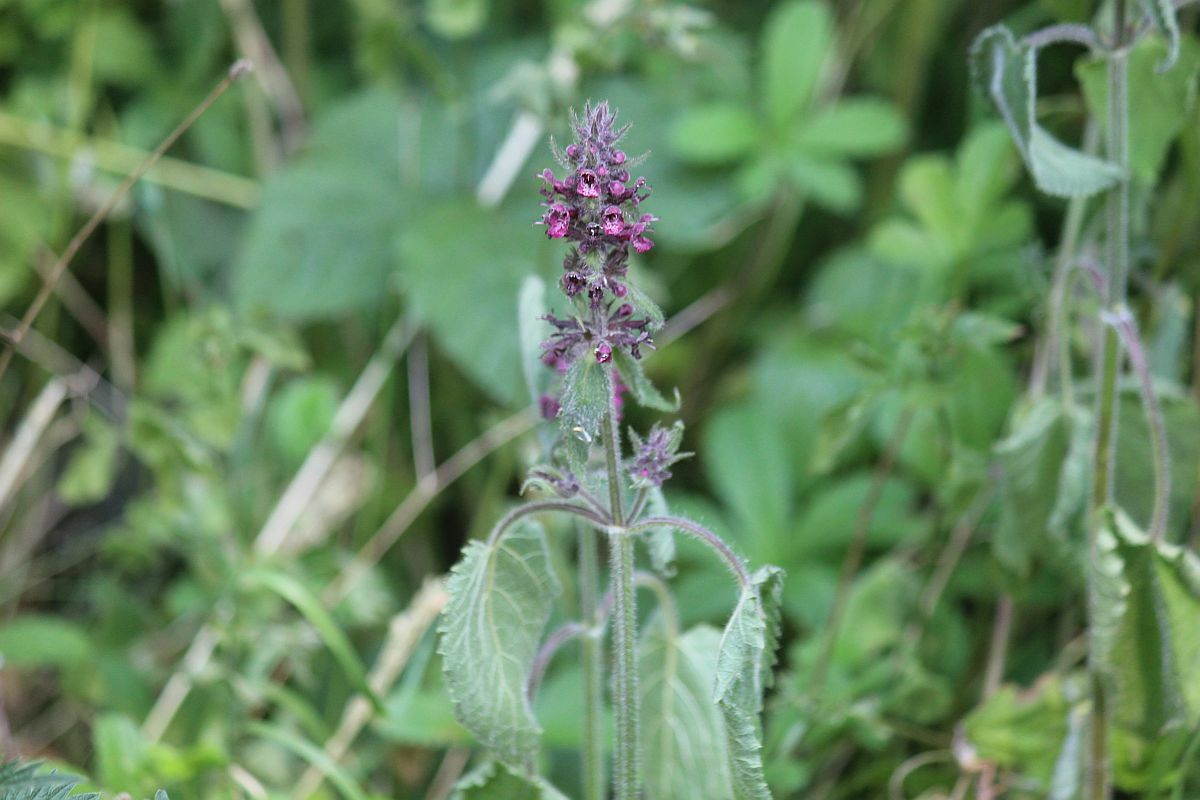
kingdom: Plantae
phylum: Tracheophyta
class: Magnoliopsida
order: Lamiales
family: Lamiaceae
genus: Stachys
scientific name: Stachys sylvatica
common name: Hedge woundwort
